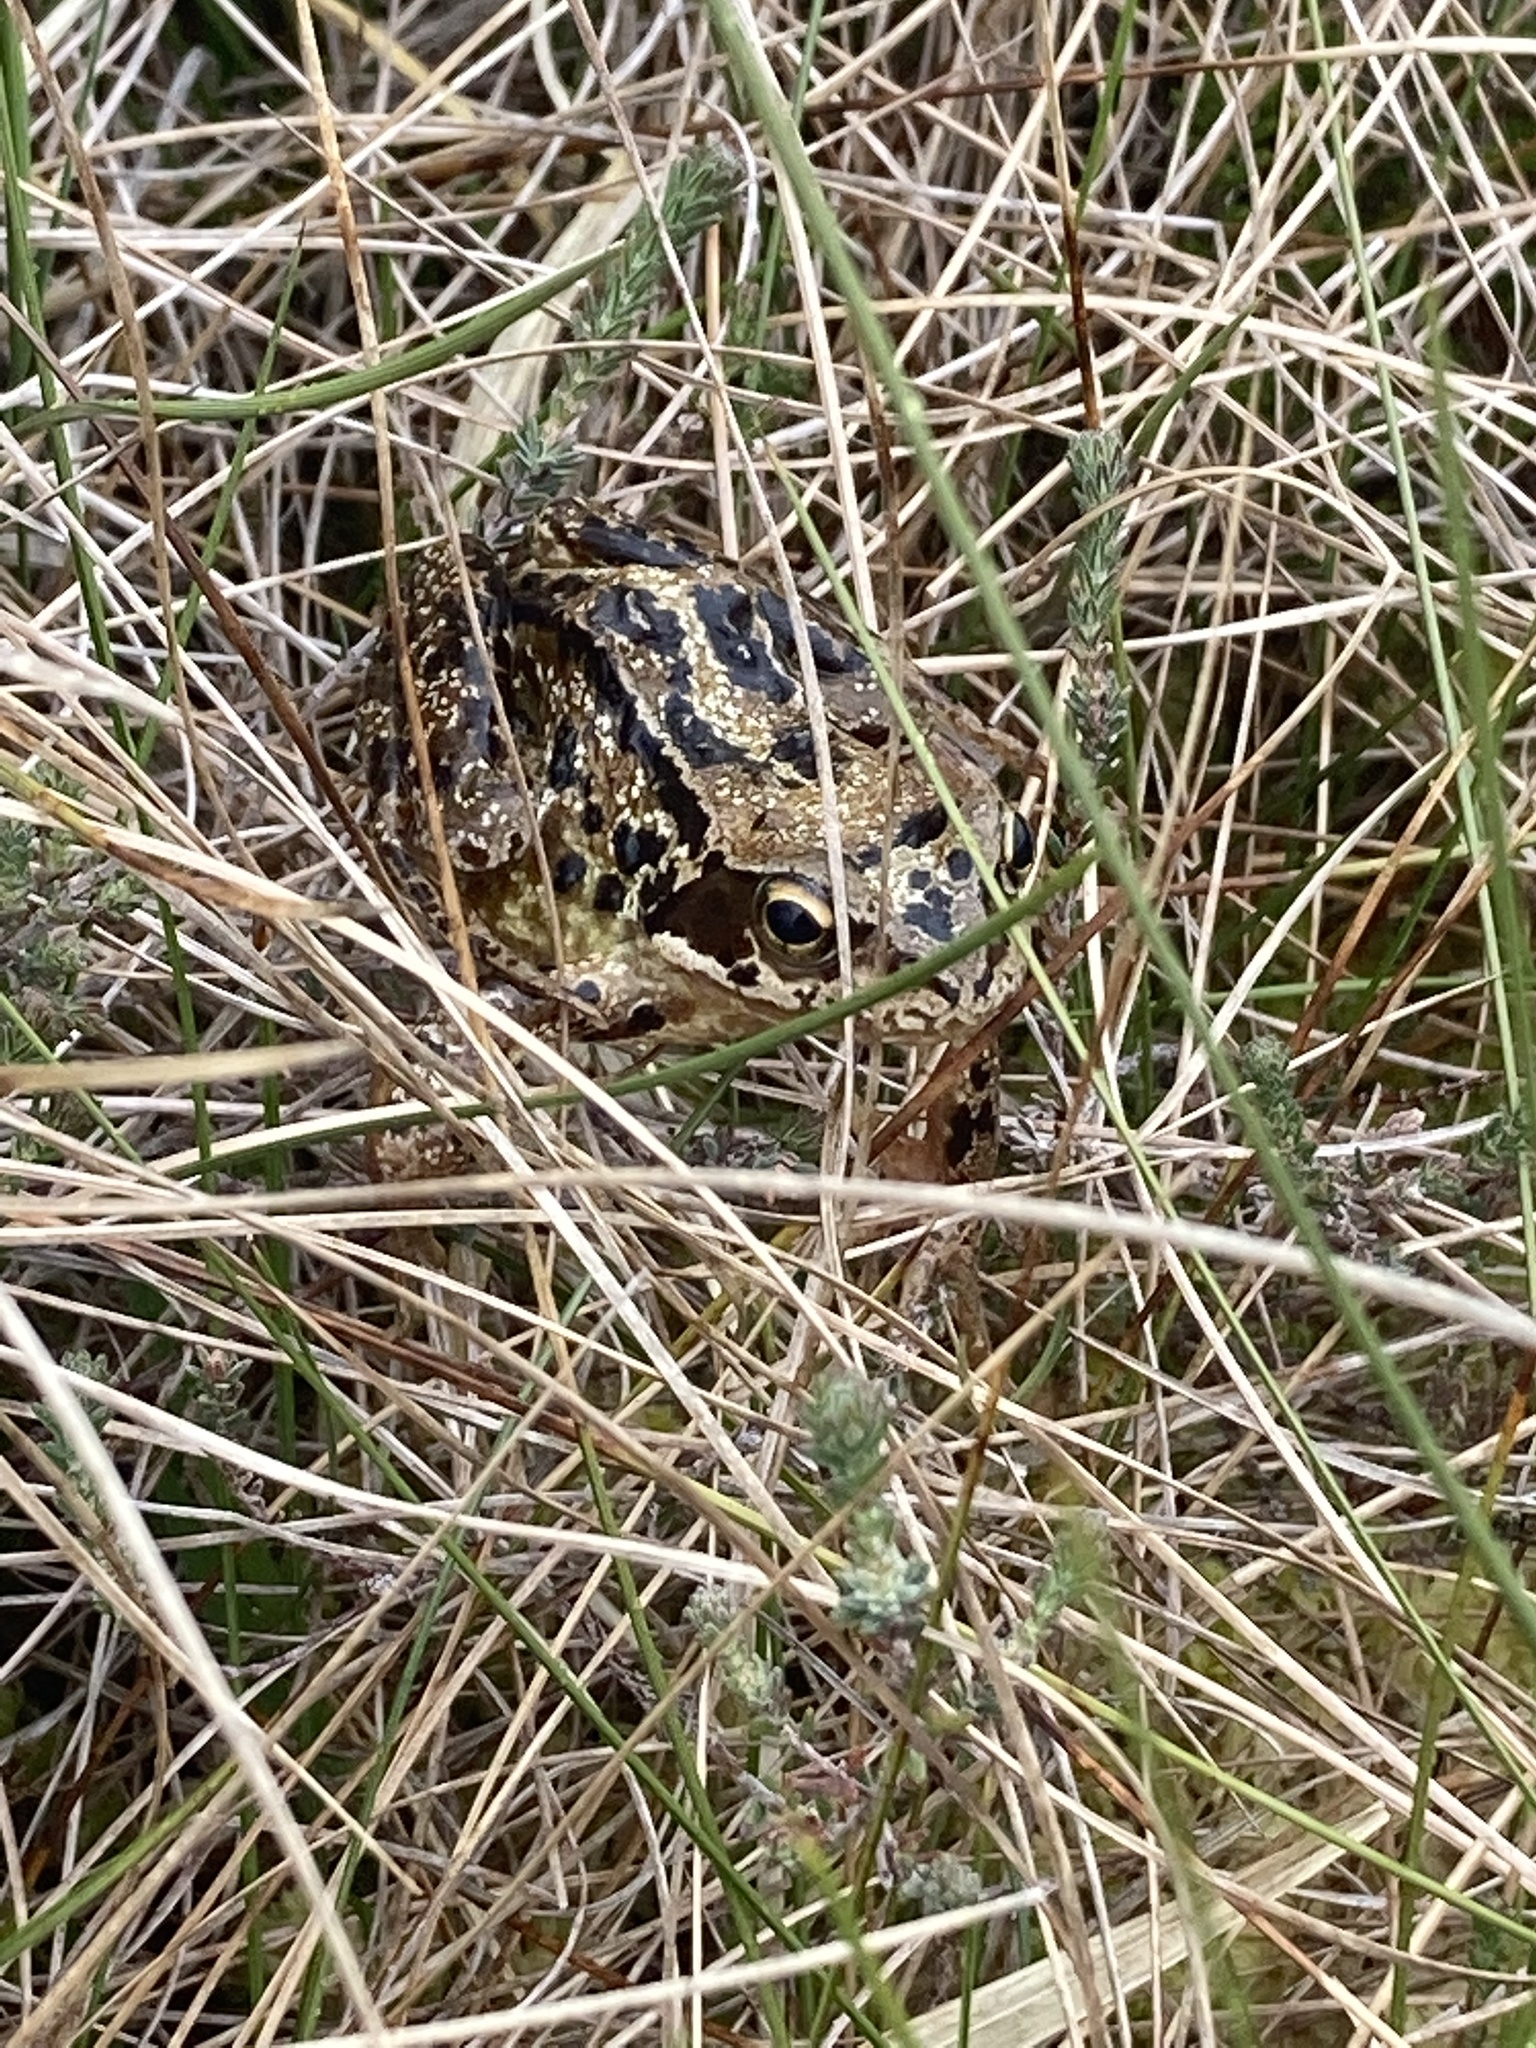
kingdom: Animalia
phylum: Chordata
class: Amphibia
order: Anura
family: Ranidae
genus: Rana
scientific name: Rana temporaria
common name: Common frog
